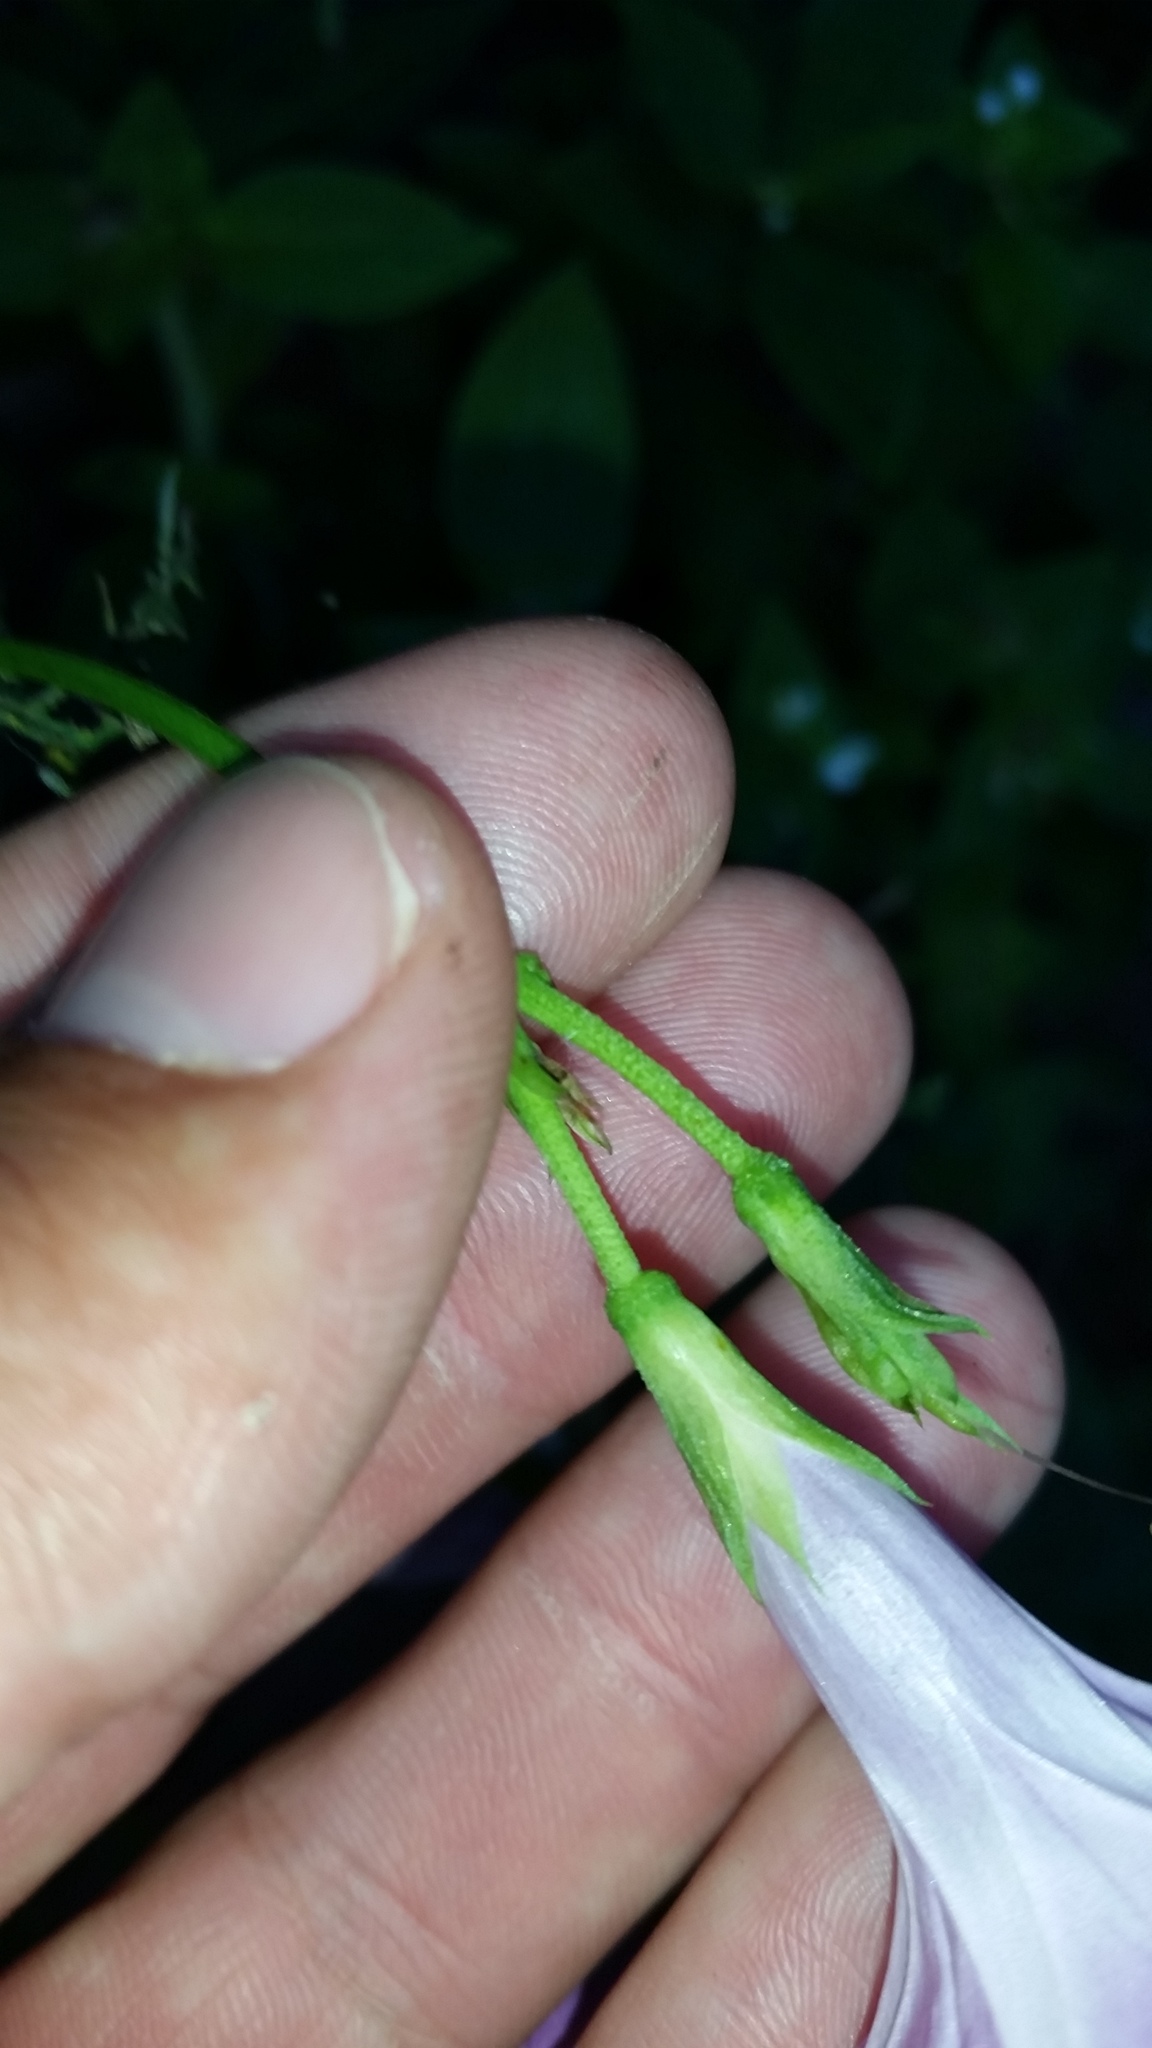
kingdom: Plantae
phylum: Tracheophyta
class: Magnoliopsida
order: Solanales
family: Convolvulaceae
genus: Ipomoea
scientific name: Ipomoea cordatotriloba
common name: Cotton morning glory
